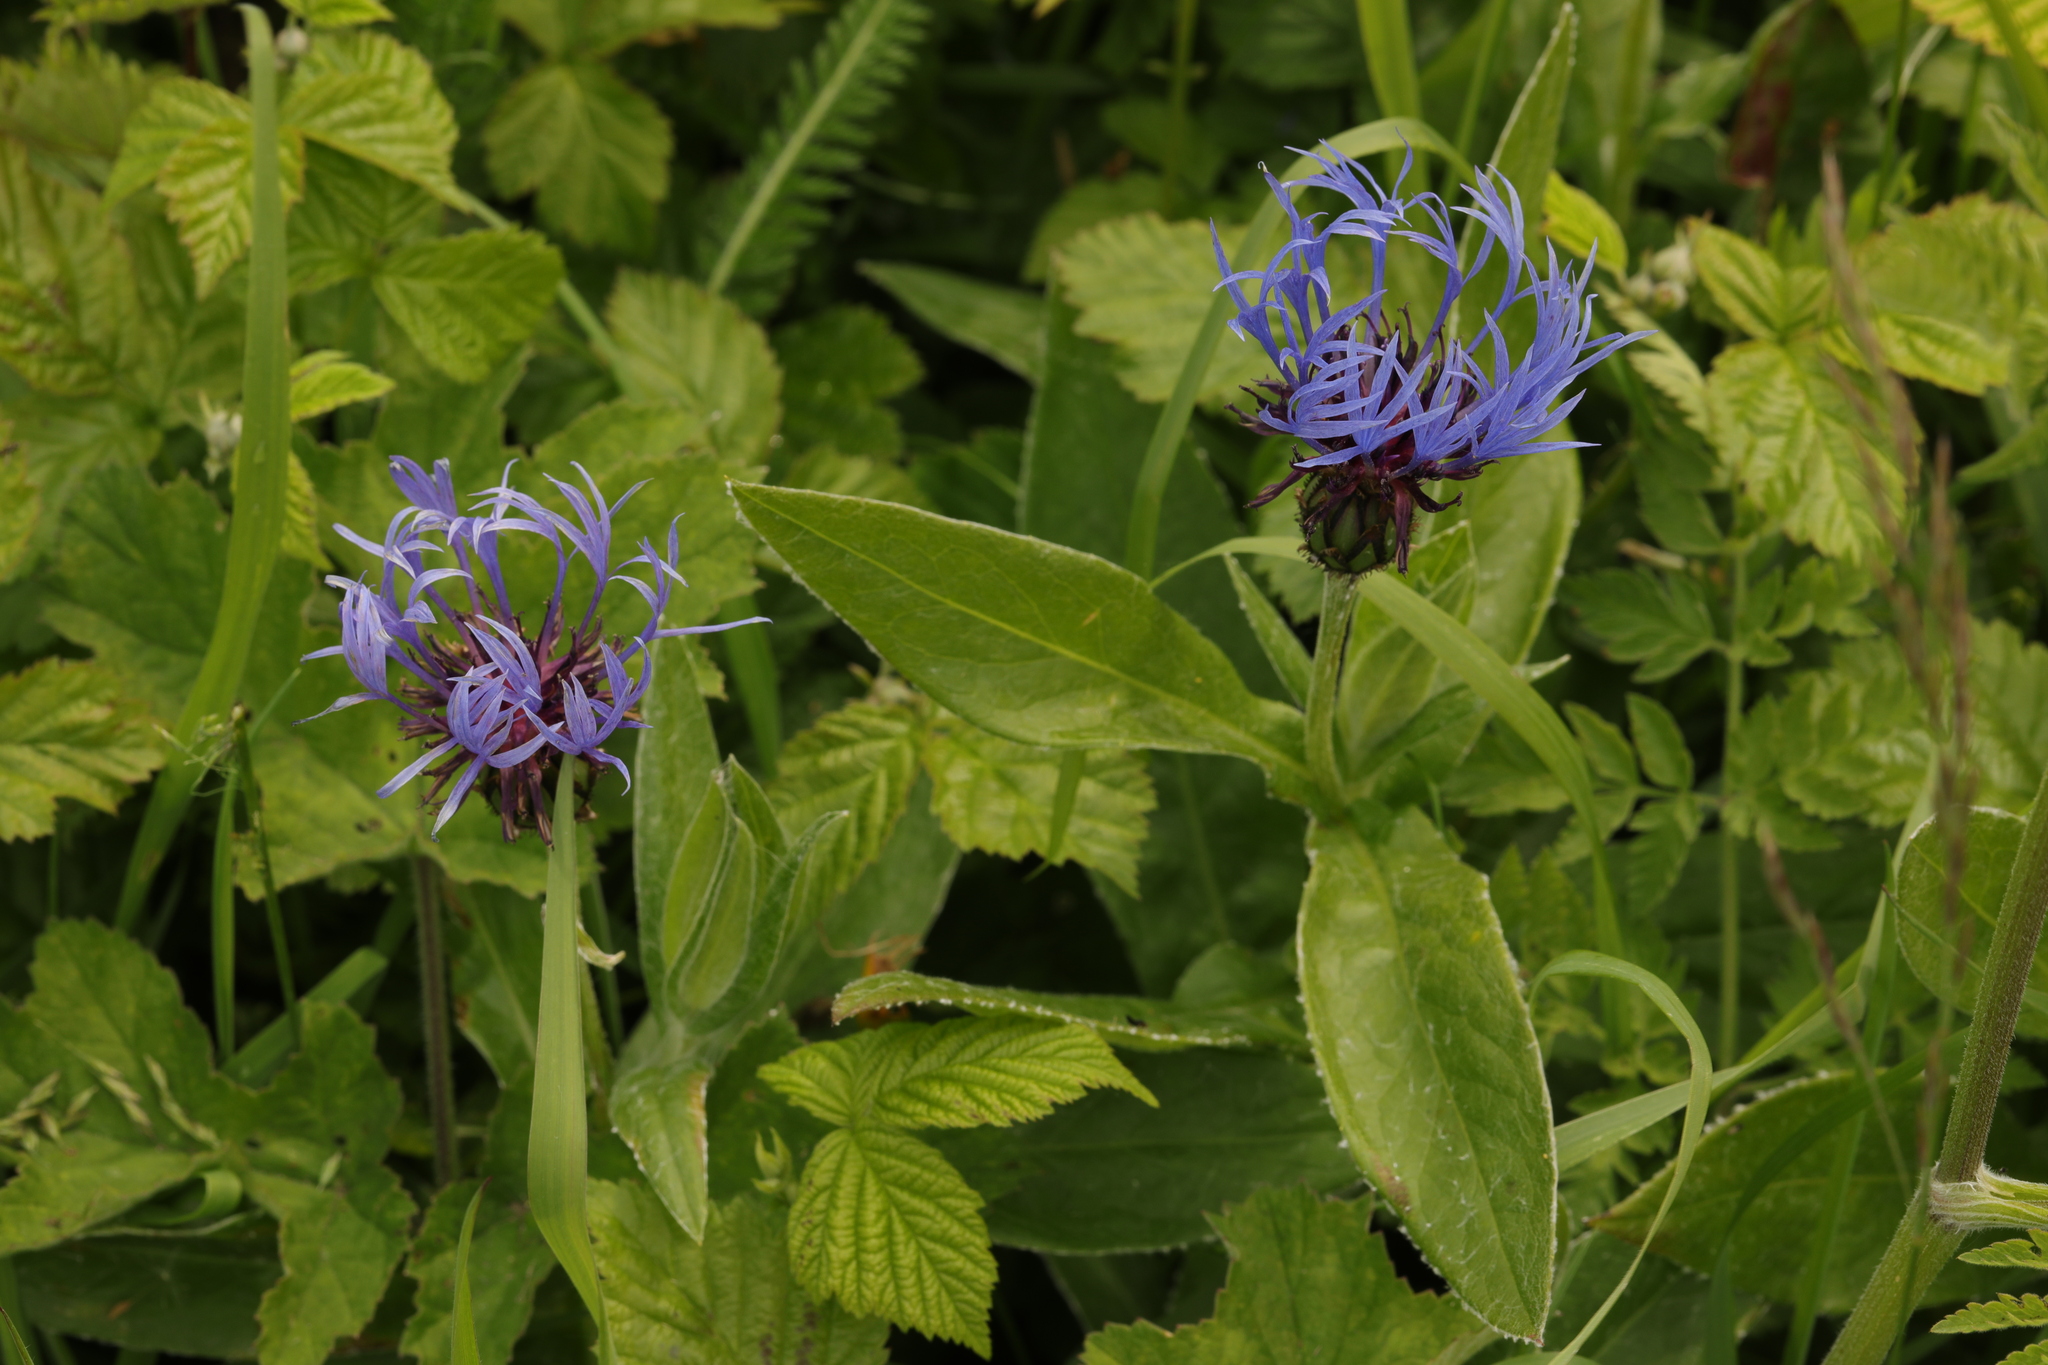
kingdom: Plantae
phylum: Tracheophyta
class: Magnoliopsida
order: Asterales
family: Asteraceae
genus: Centaurea
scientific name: Centaurea montana
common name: Perennial cornflower
